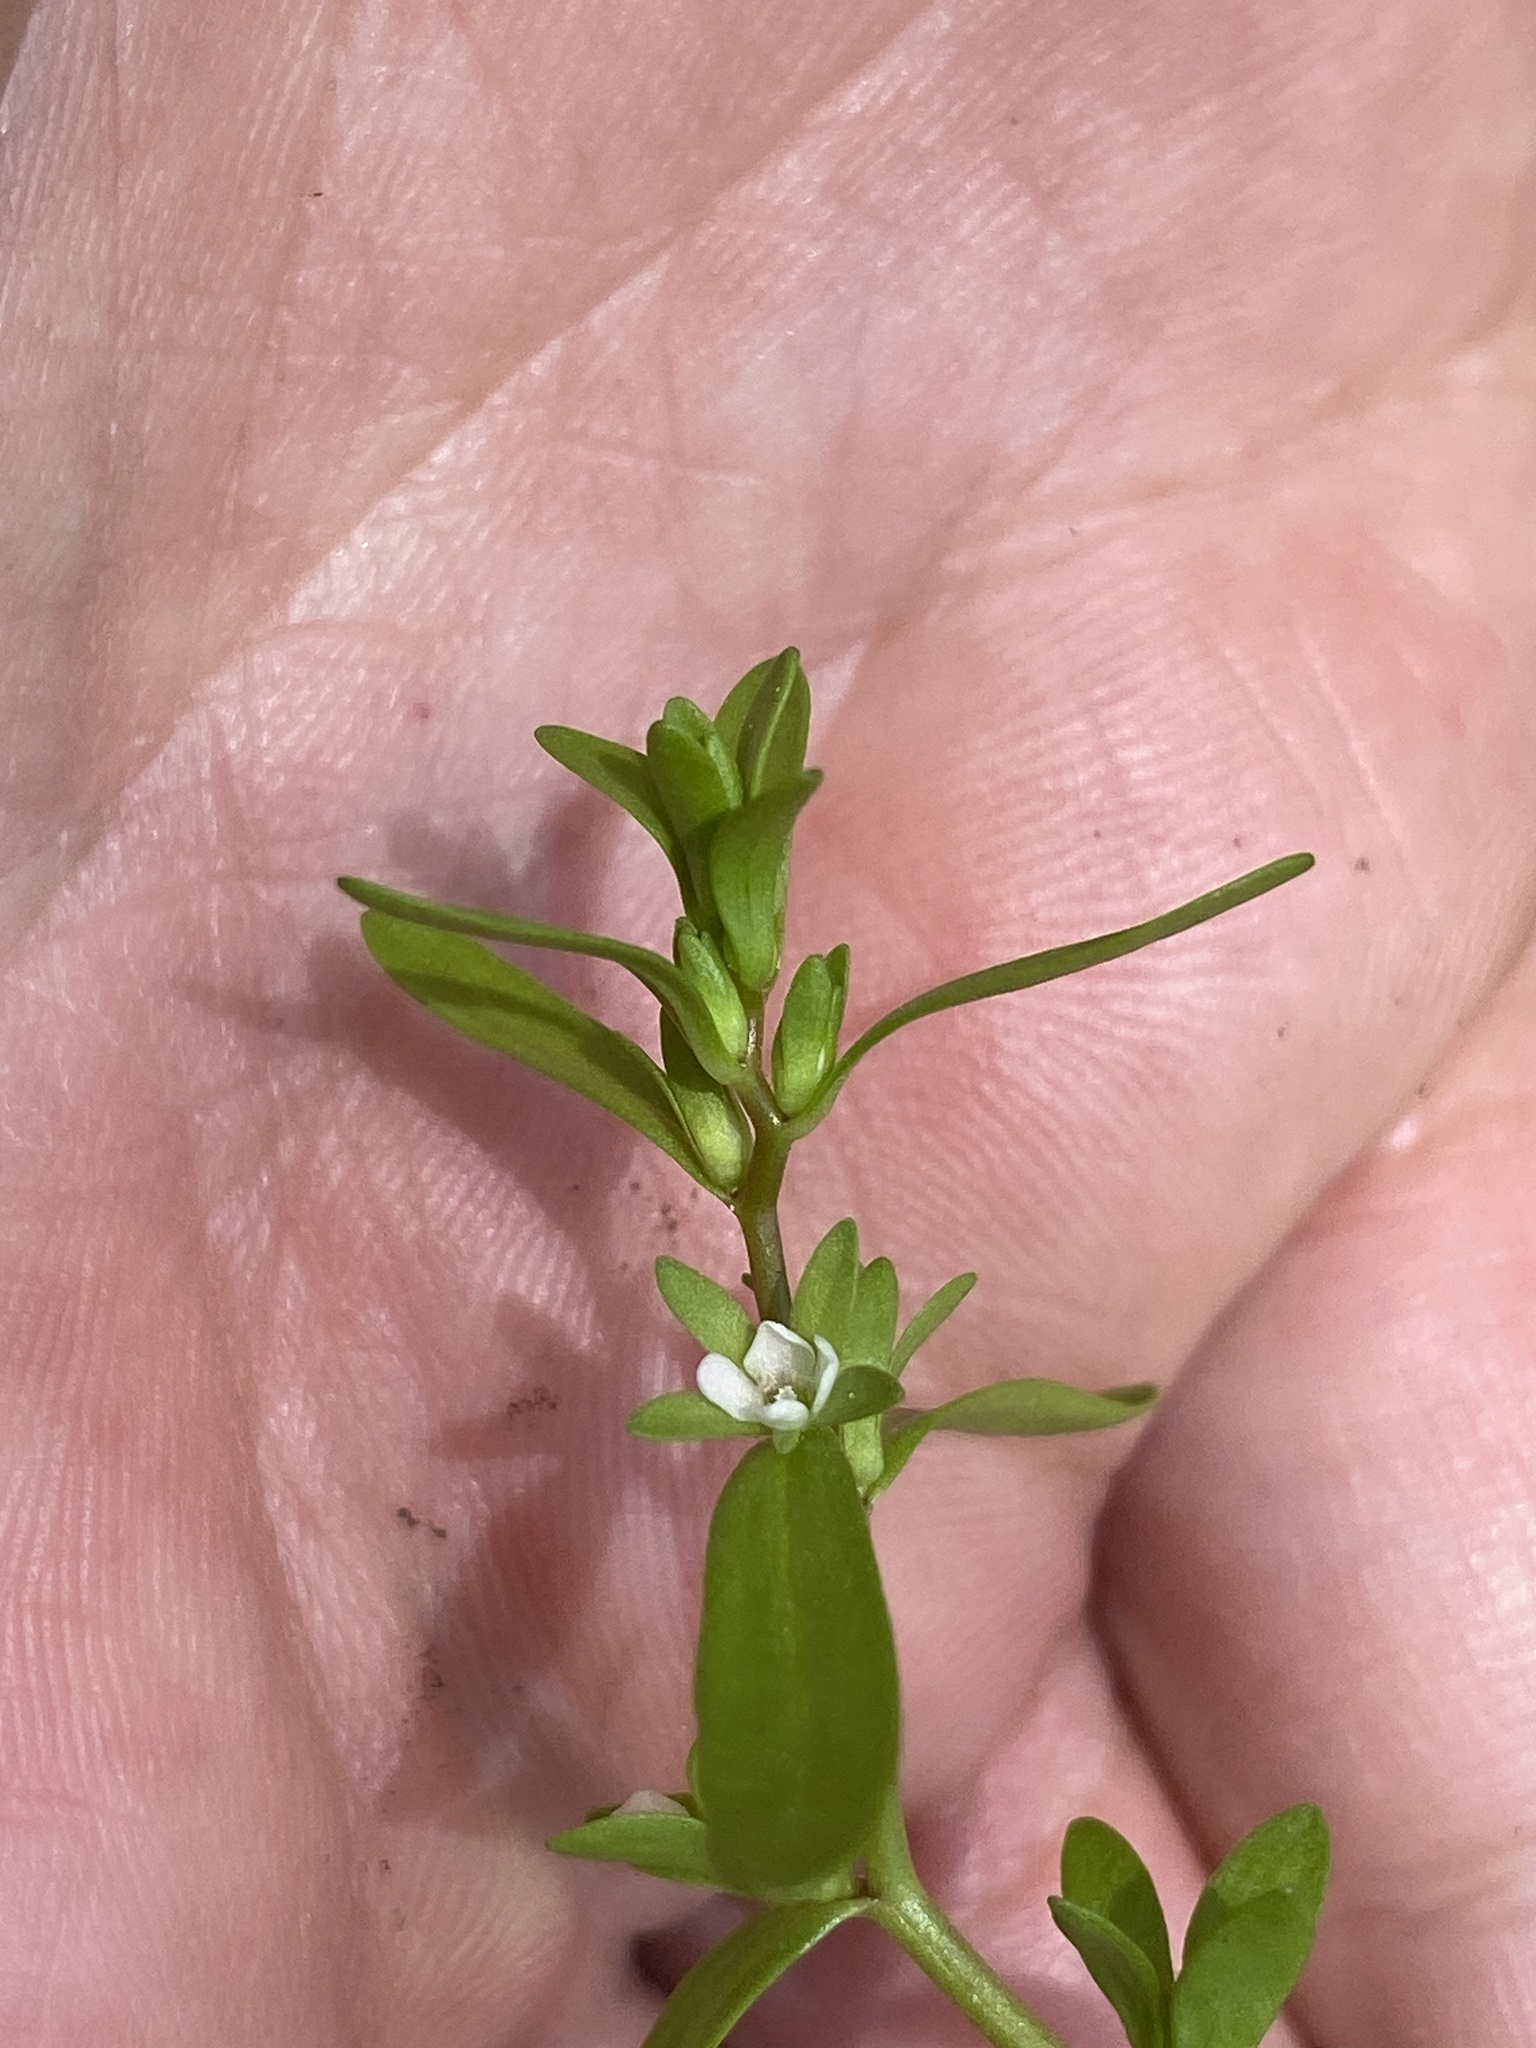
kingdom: Plantae
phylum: Tracheophyta
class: Magnoliopsida
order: Lamiales
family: Plantaginaceae
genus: Veronica
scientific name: Veronica peregrina
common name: Neckweed
